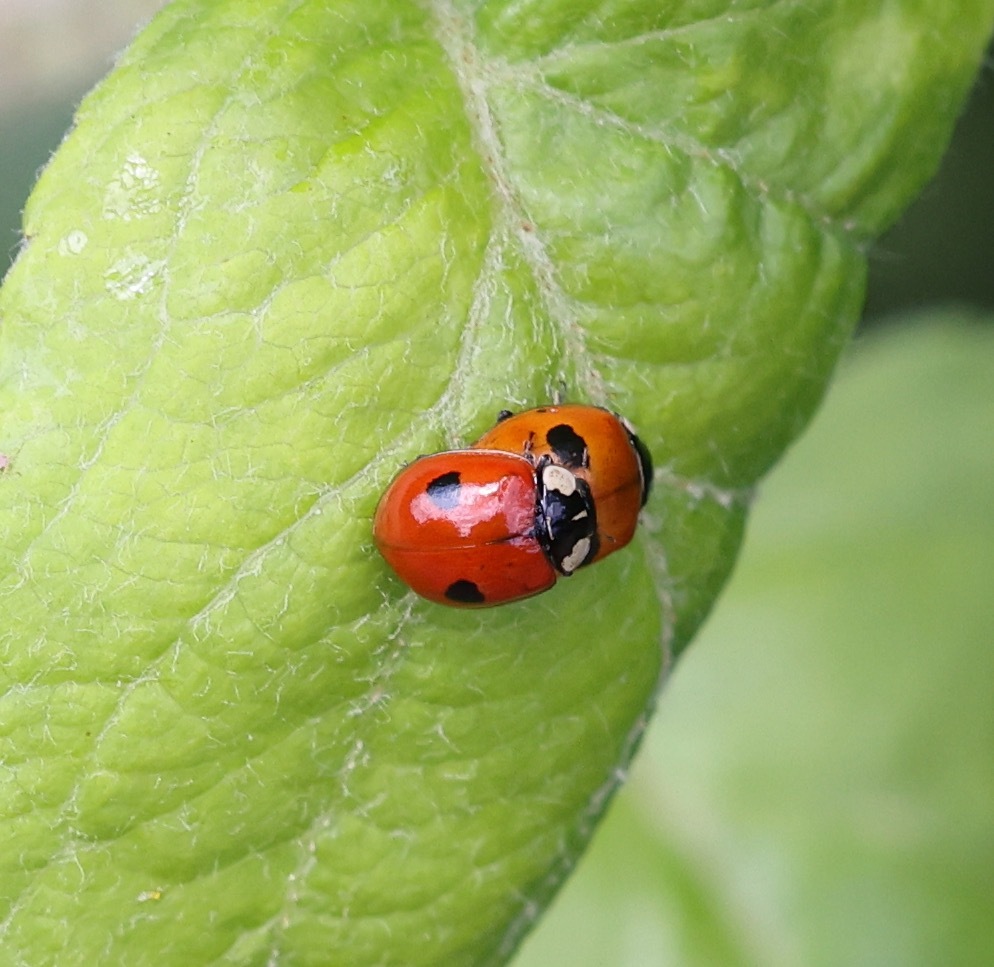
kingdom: Animalia
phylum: Arthropoda
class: Insecta
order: Coleoptera
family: Coccinellidae
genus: Adalia
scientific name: Adalia bipunctata
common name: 2-spot ladybird
